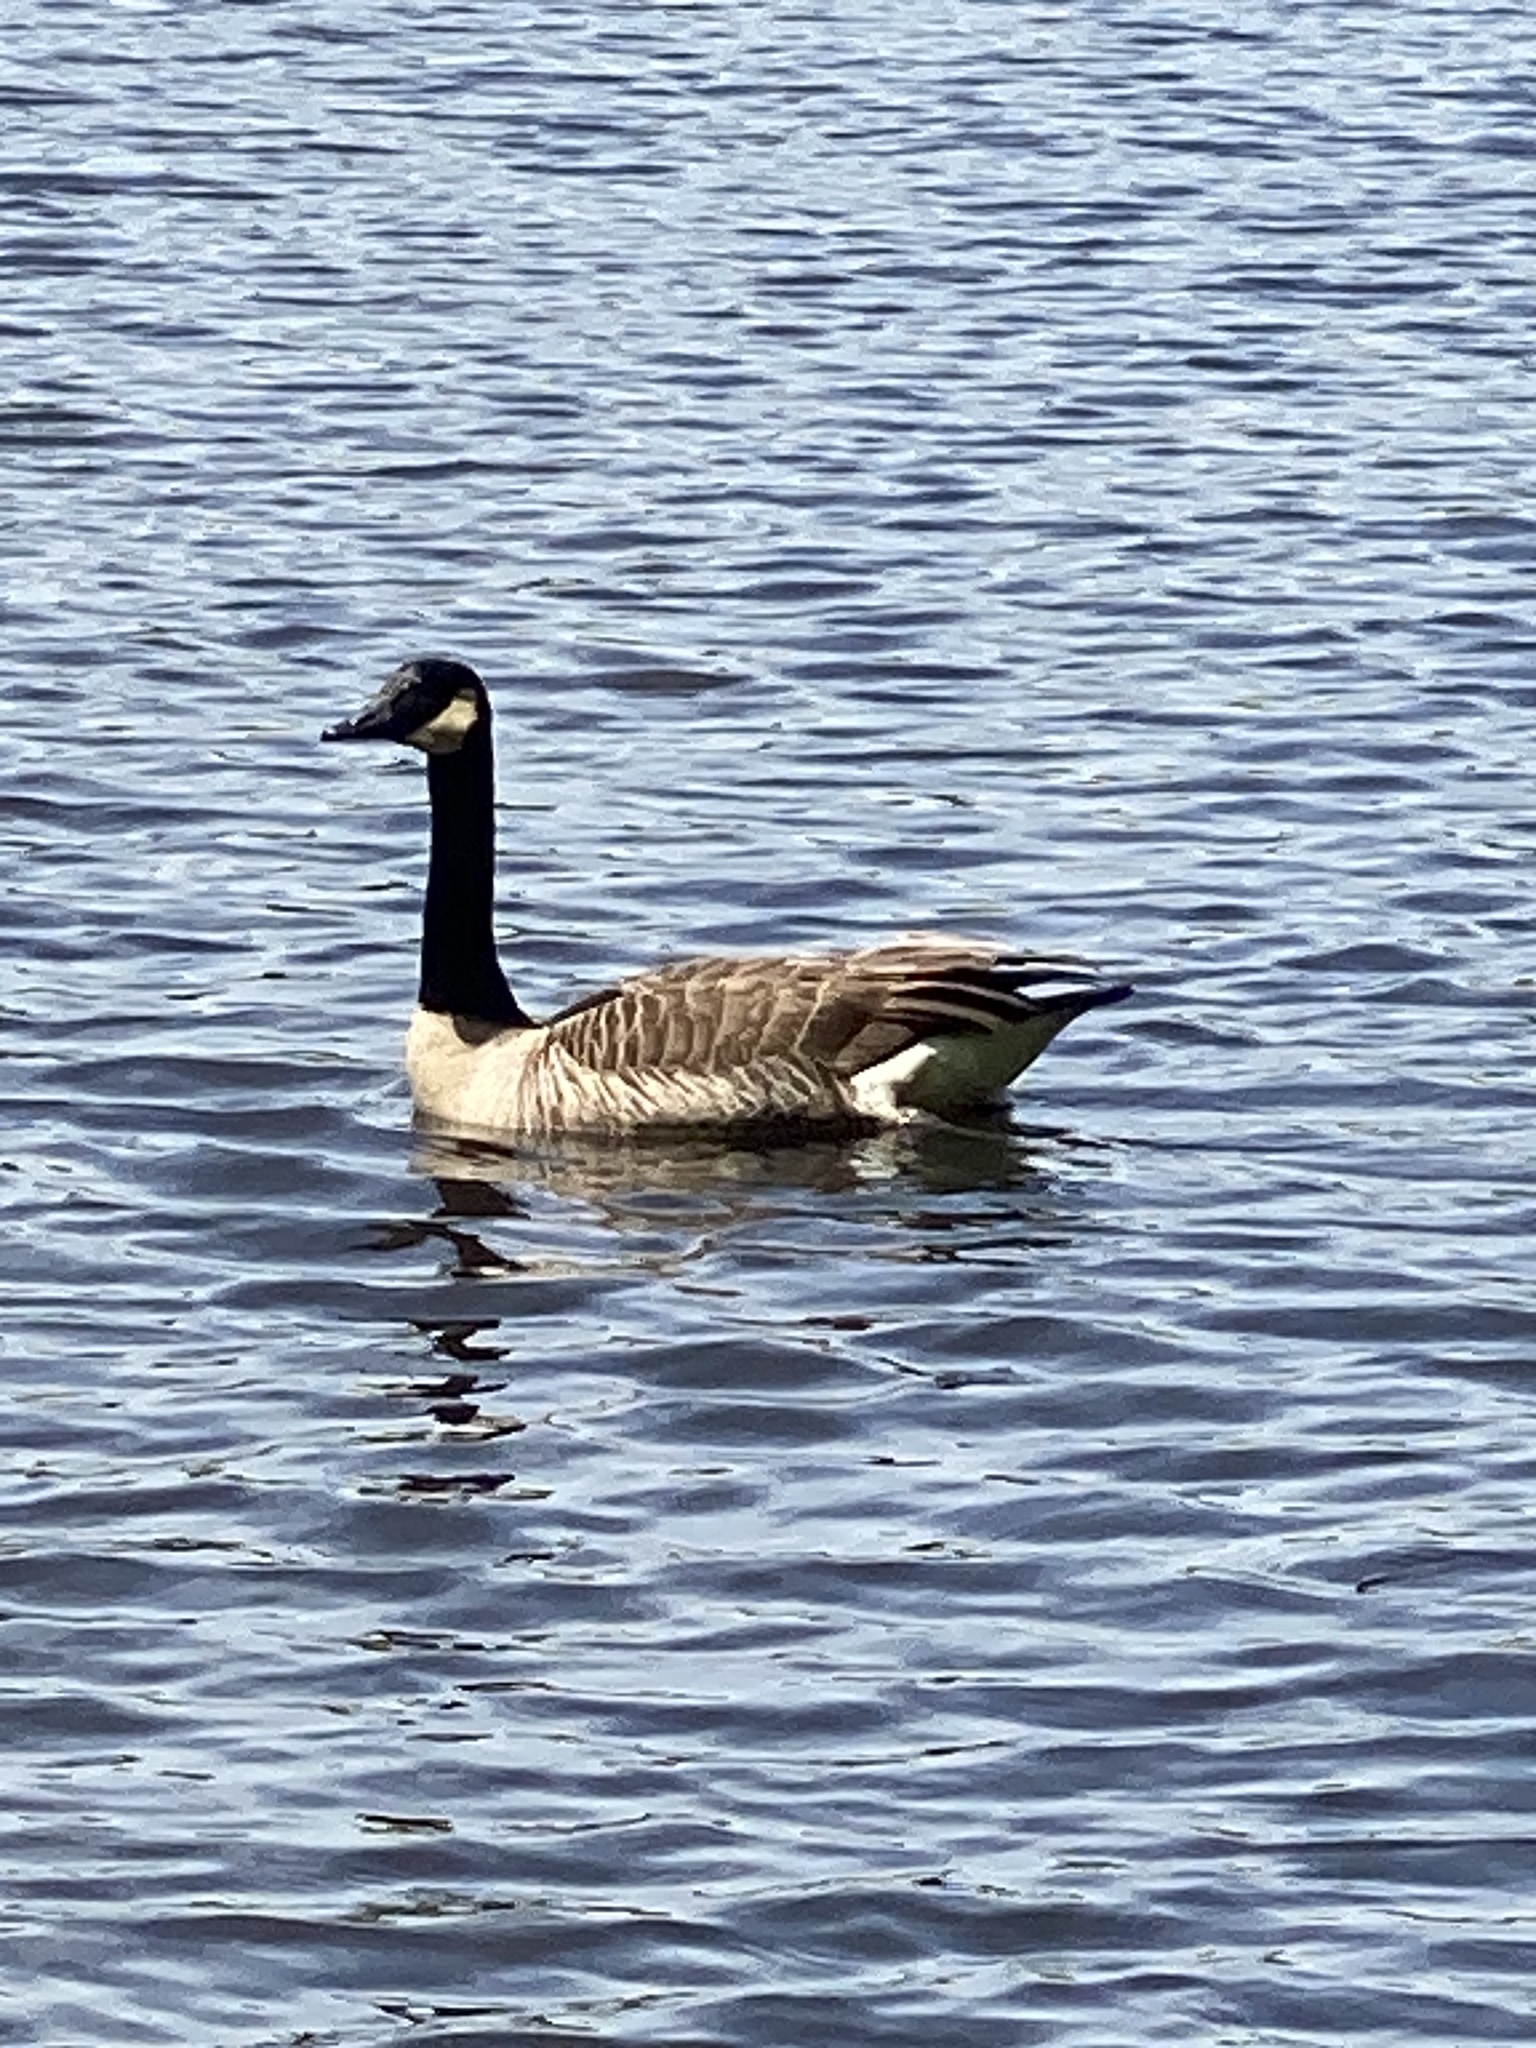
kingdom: Animalia
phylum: Chordata
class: Aves
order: Anseriformes
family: Anatidae
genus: Branta
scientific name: Branta canadensis
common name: Canada goose
